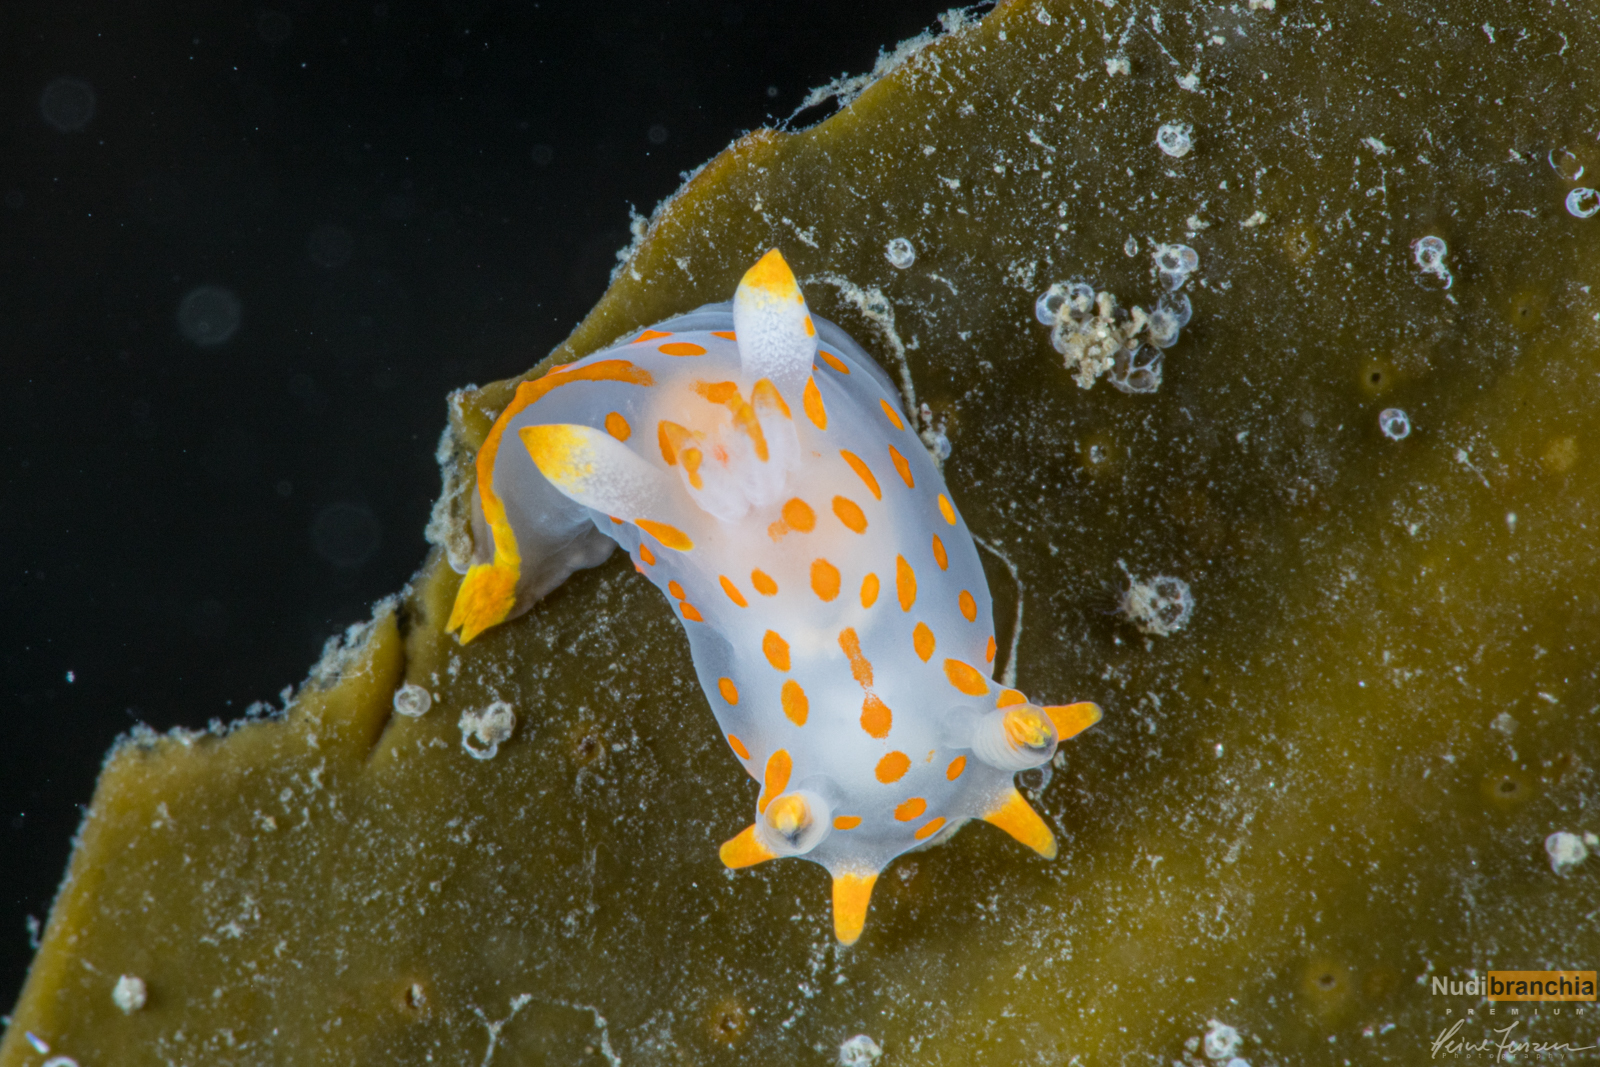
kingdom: Animalia
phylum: Mollusca
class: Gastropoda
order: Nudibranchia
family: Polyceridae
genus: Polycera
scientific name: Polycera quadrilineata
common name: Four-striped polycera
